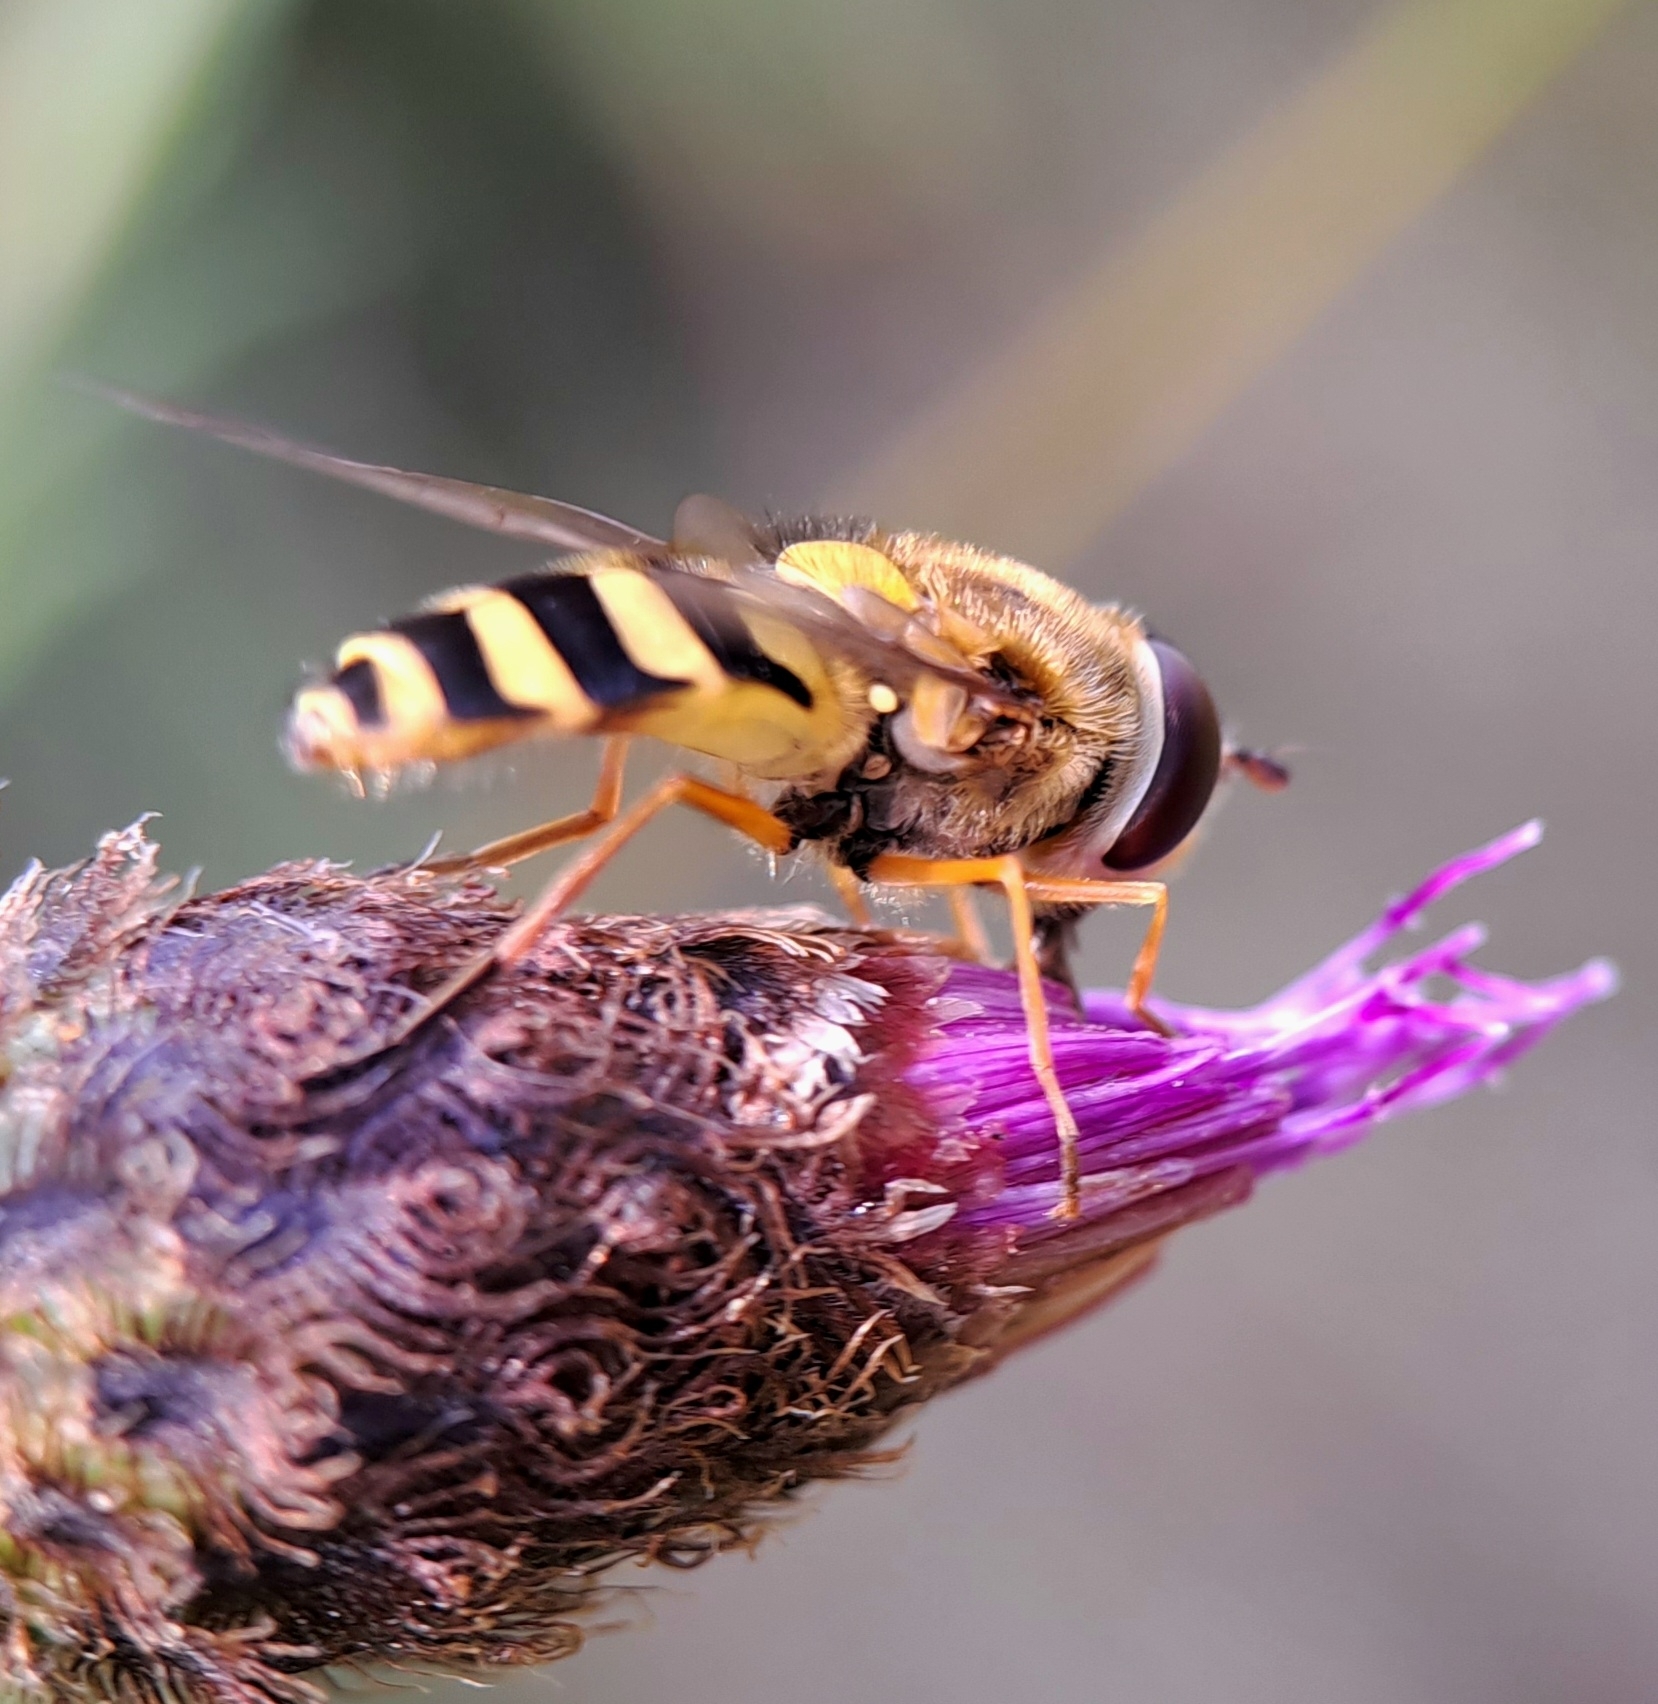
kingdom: Animalia
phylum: Arthropoda
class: Insecta
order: Diptera
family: Syrphidae
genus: Syrphus
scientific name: Syrphus ribesii
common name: Common flower fly
